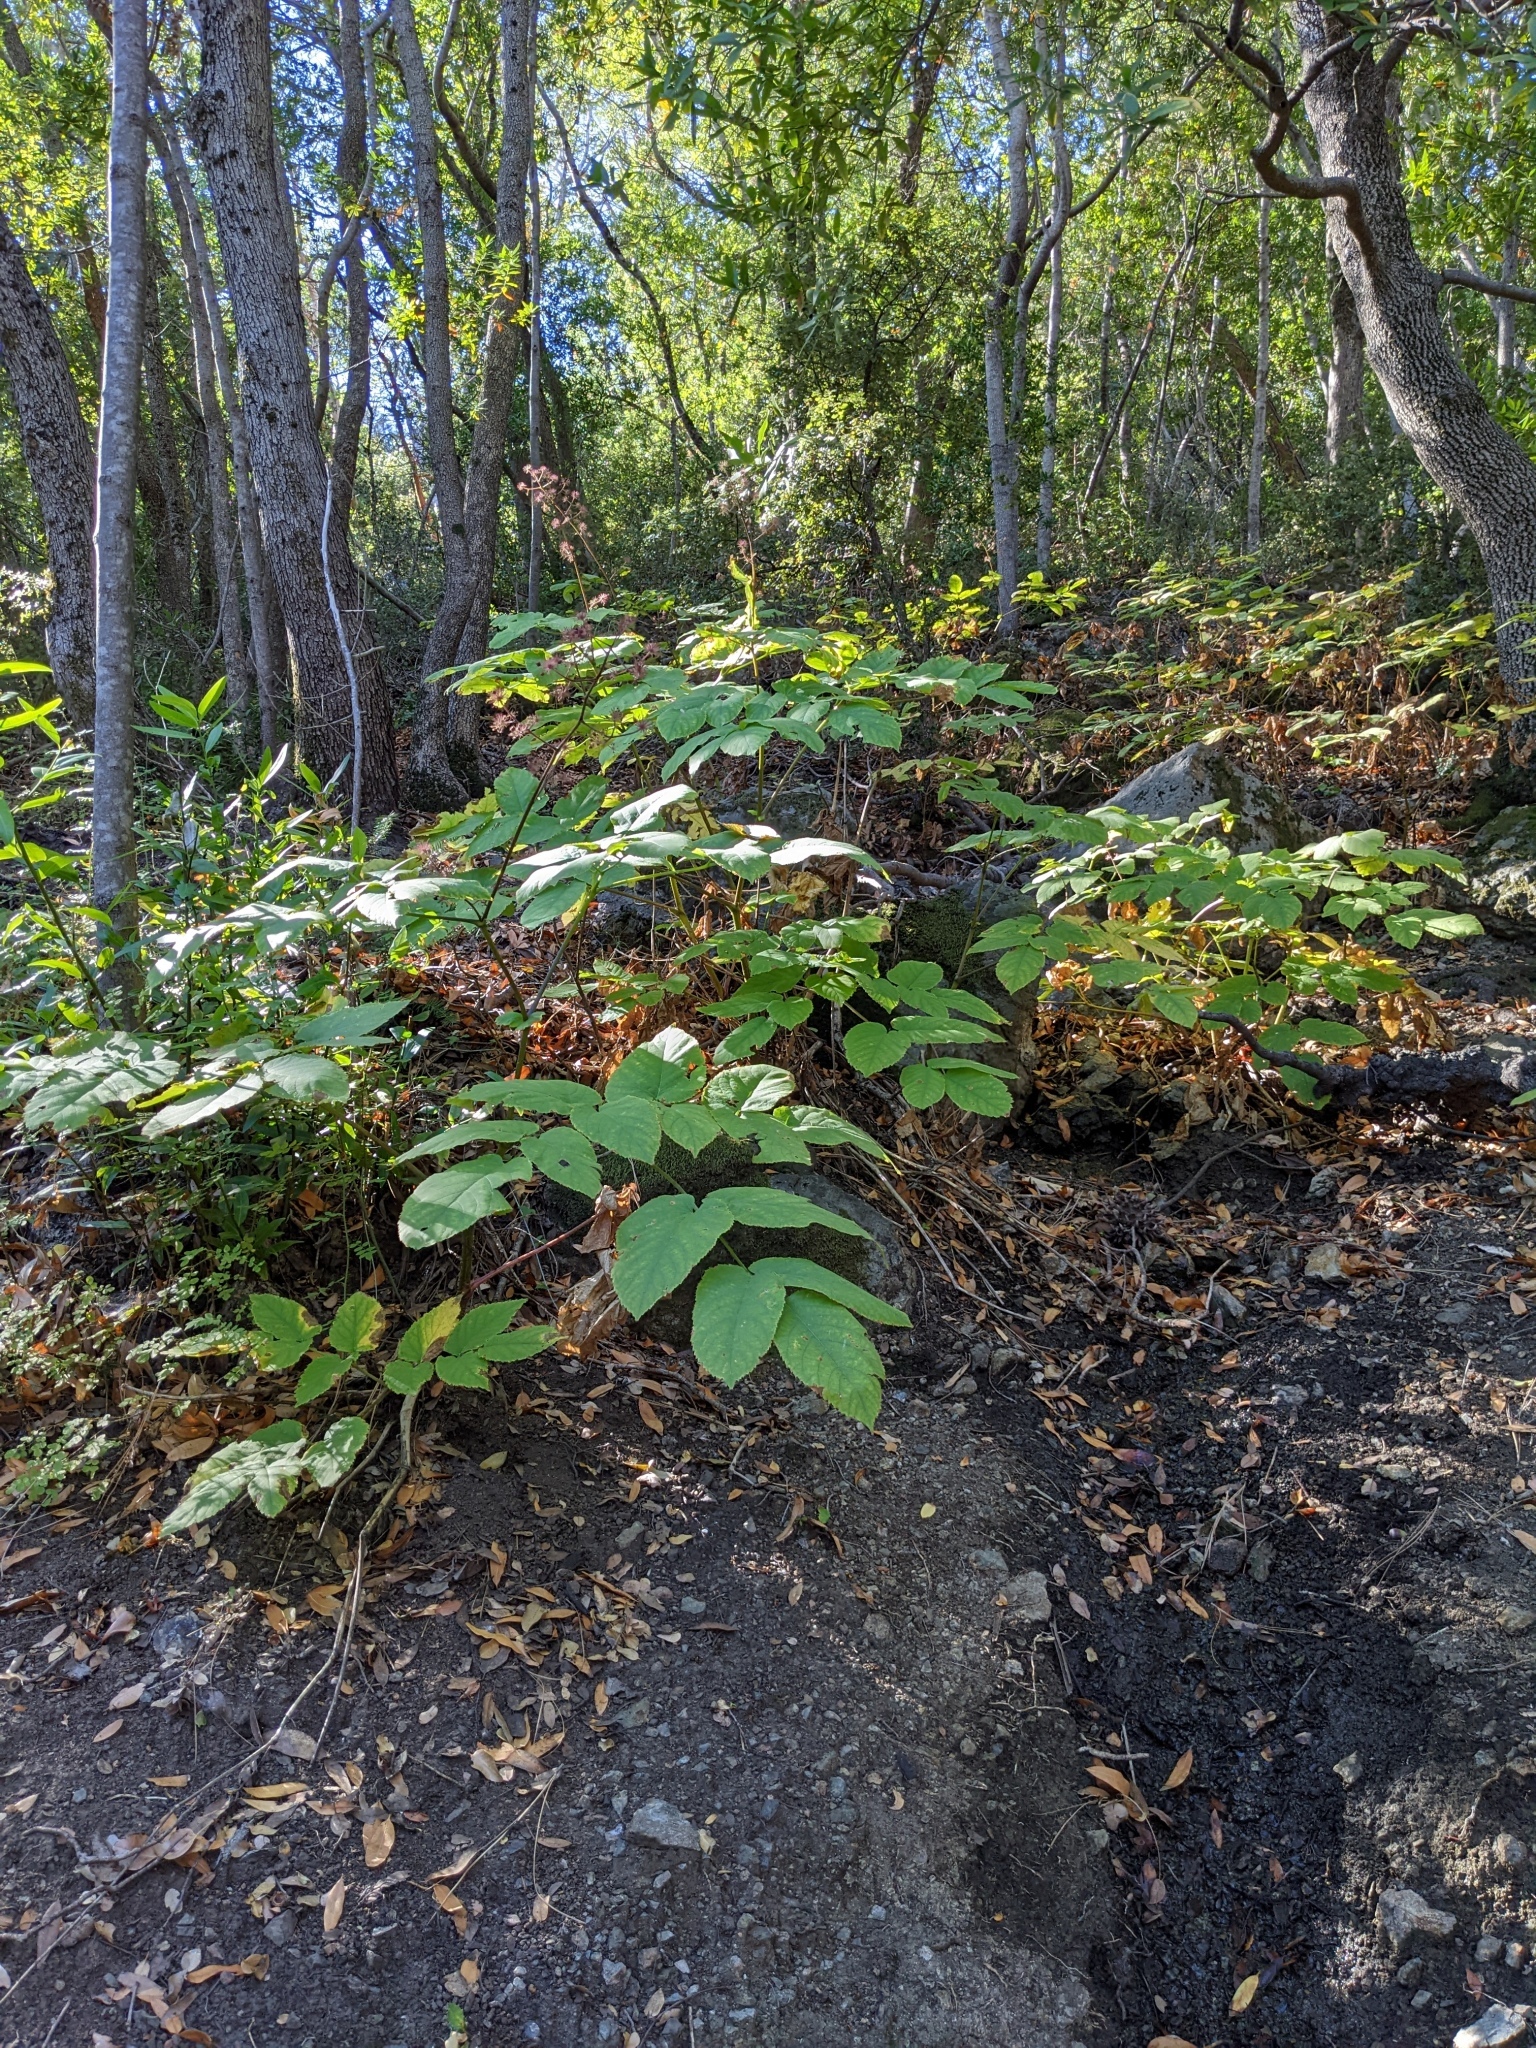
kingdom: Plantae
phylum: Tracheophyta
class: Magnoliopsida
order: Apiales
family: Araliaceae
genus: Aralia
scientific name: Aralia californica
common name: California-ginseng
